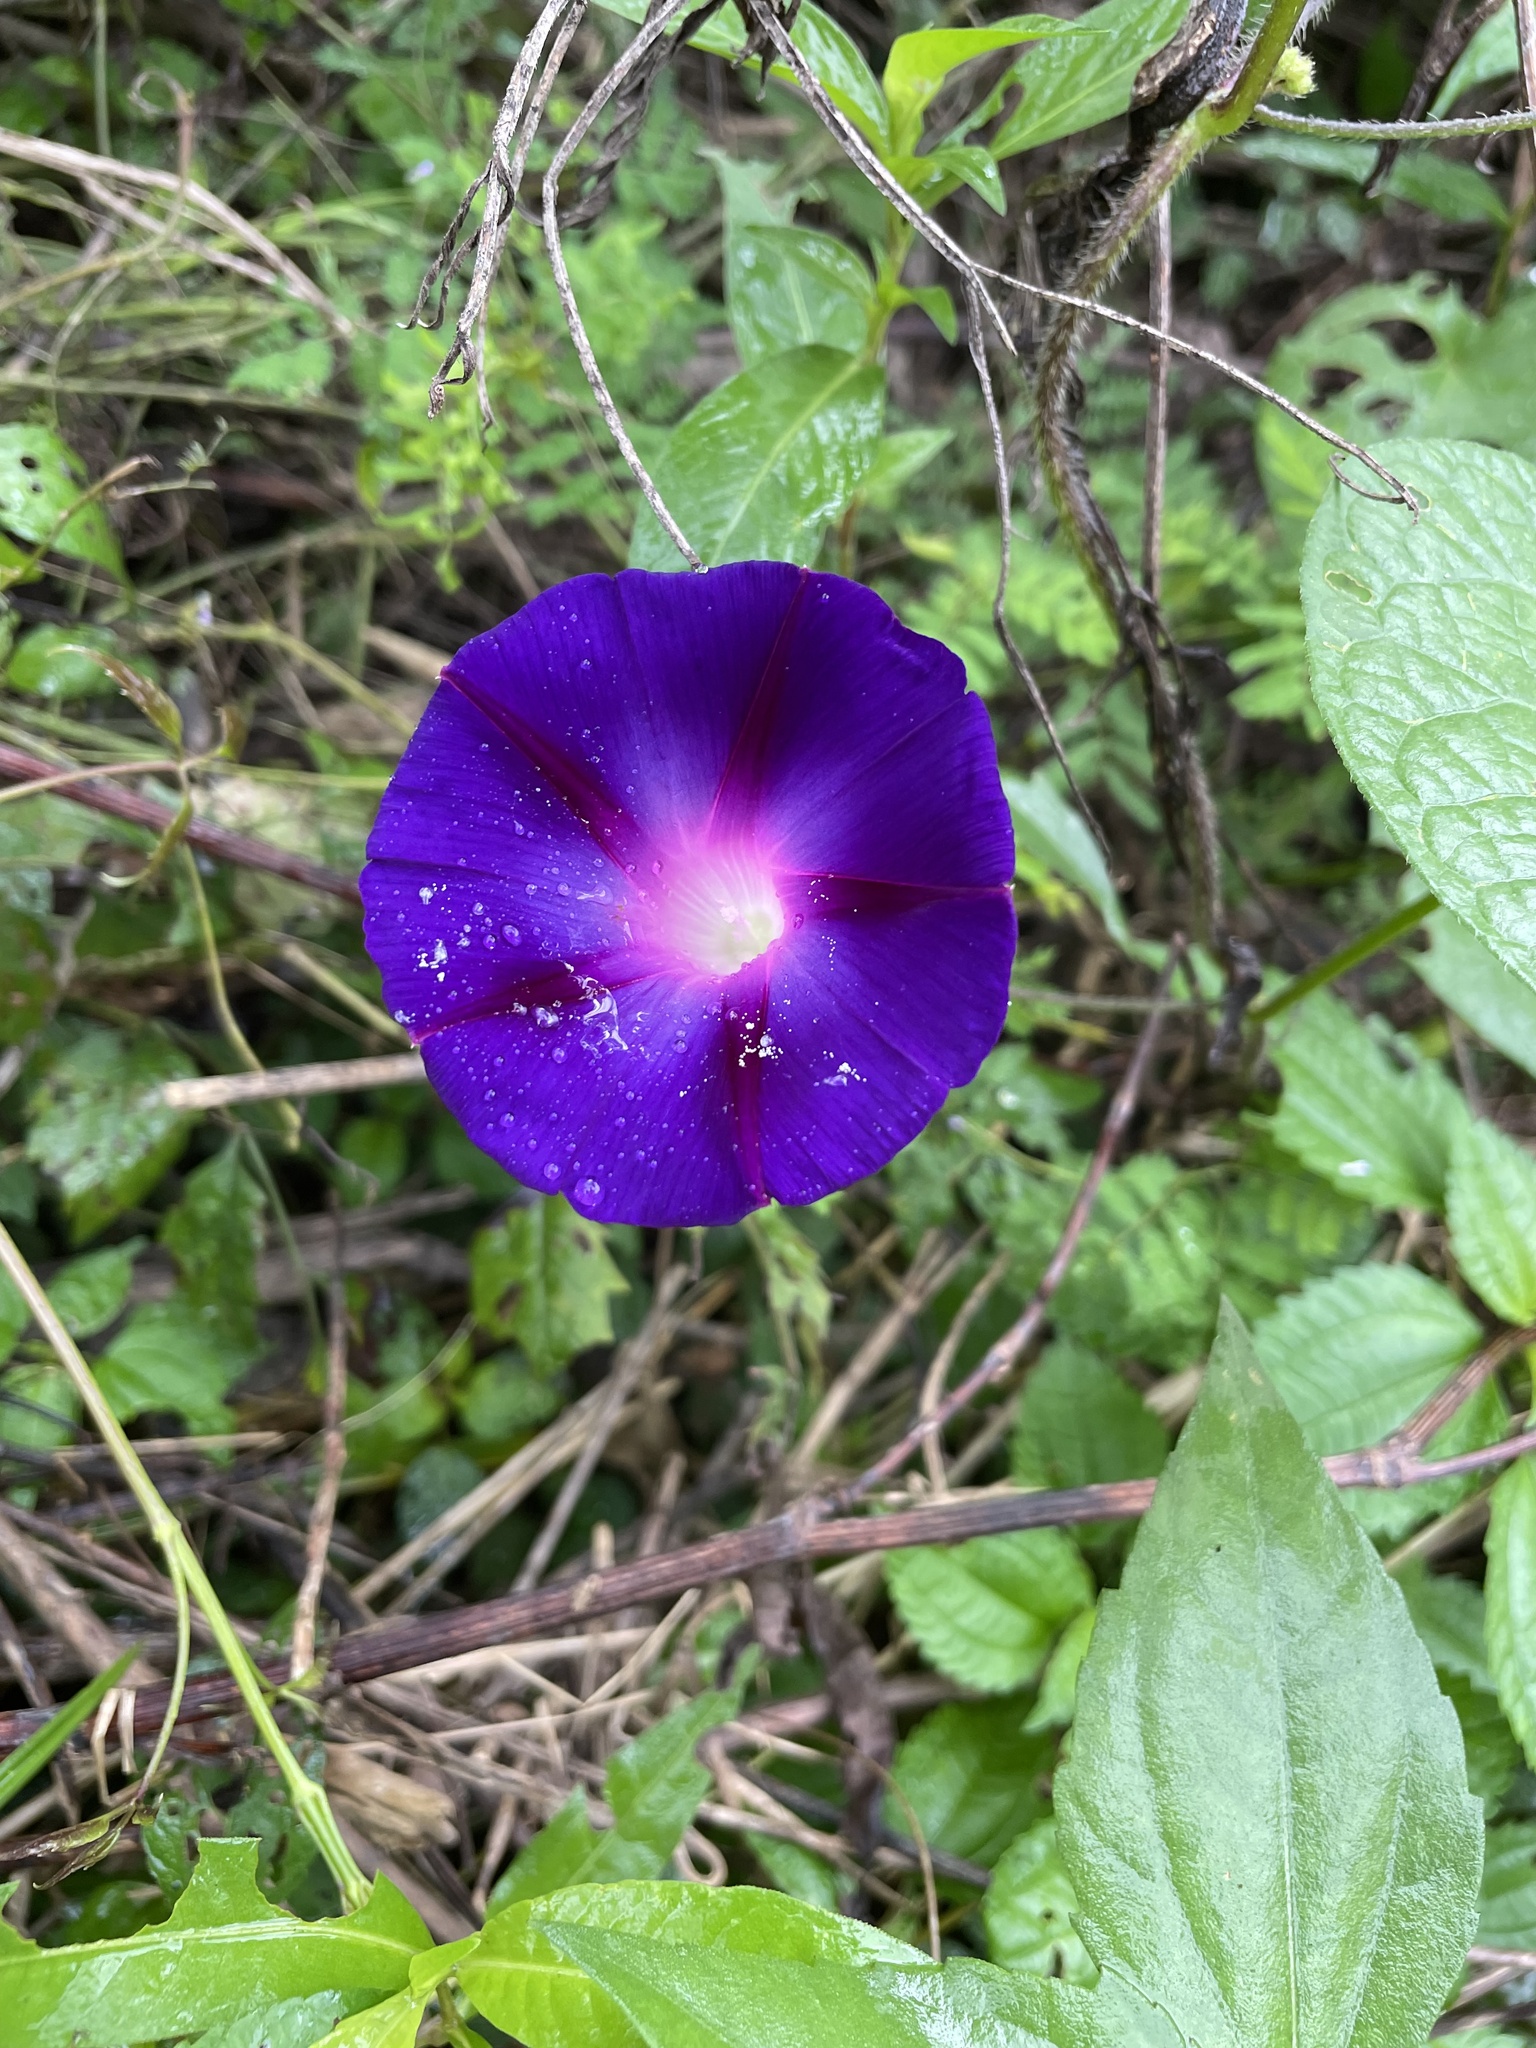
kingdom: Plantae
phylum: Tracheophyta
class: Magnoliopsida
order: Solanales
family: Convolvulaceae
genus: Ipomoea
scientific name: Ipomoea purpurea
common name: Common morning-glory
